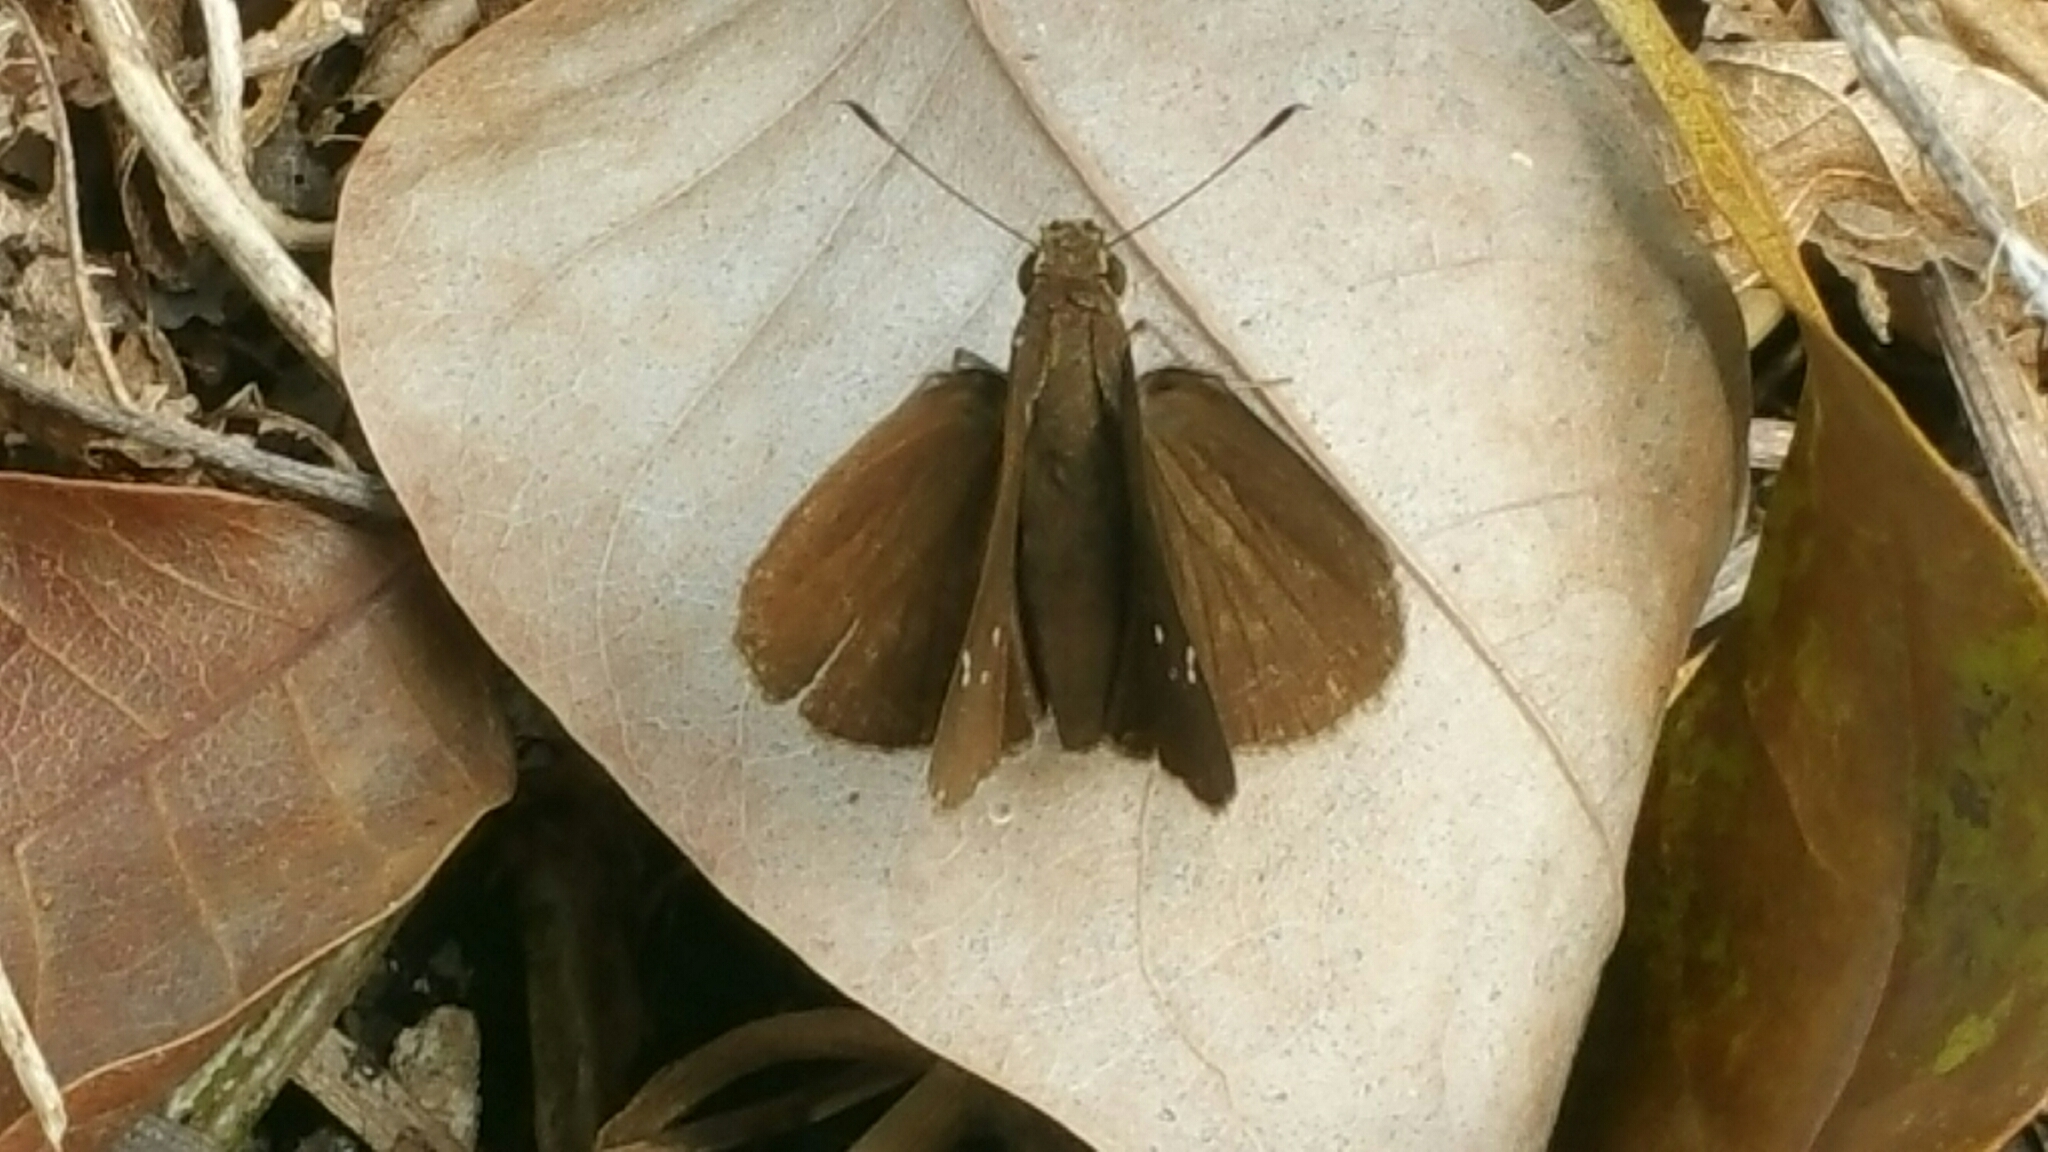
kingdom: Animalia
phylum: Arthropoda
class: Insecta
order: Lepidoptera
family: Hesperiidae
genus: Lerema
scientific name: Lerema ancillaris
